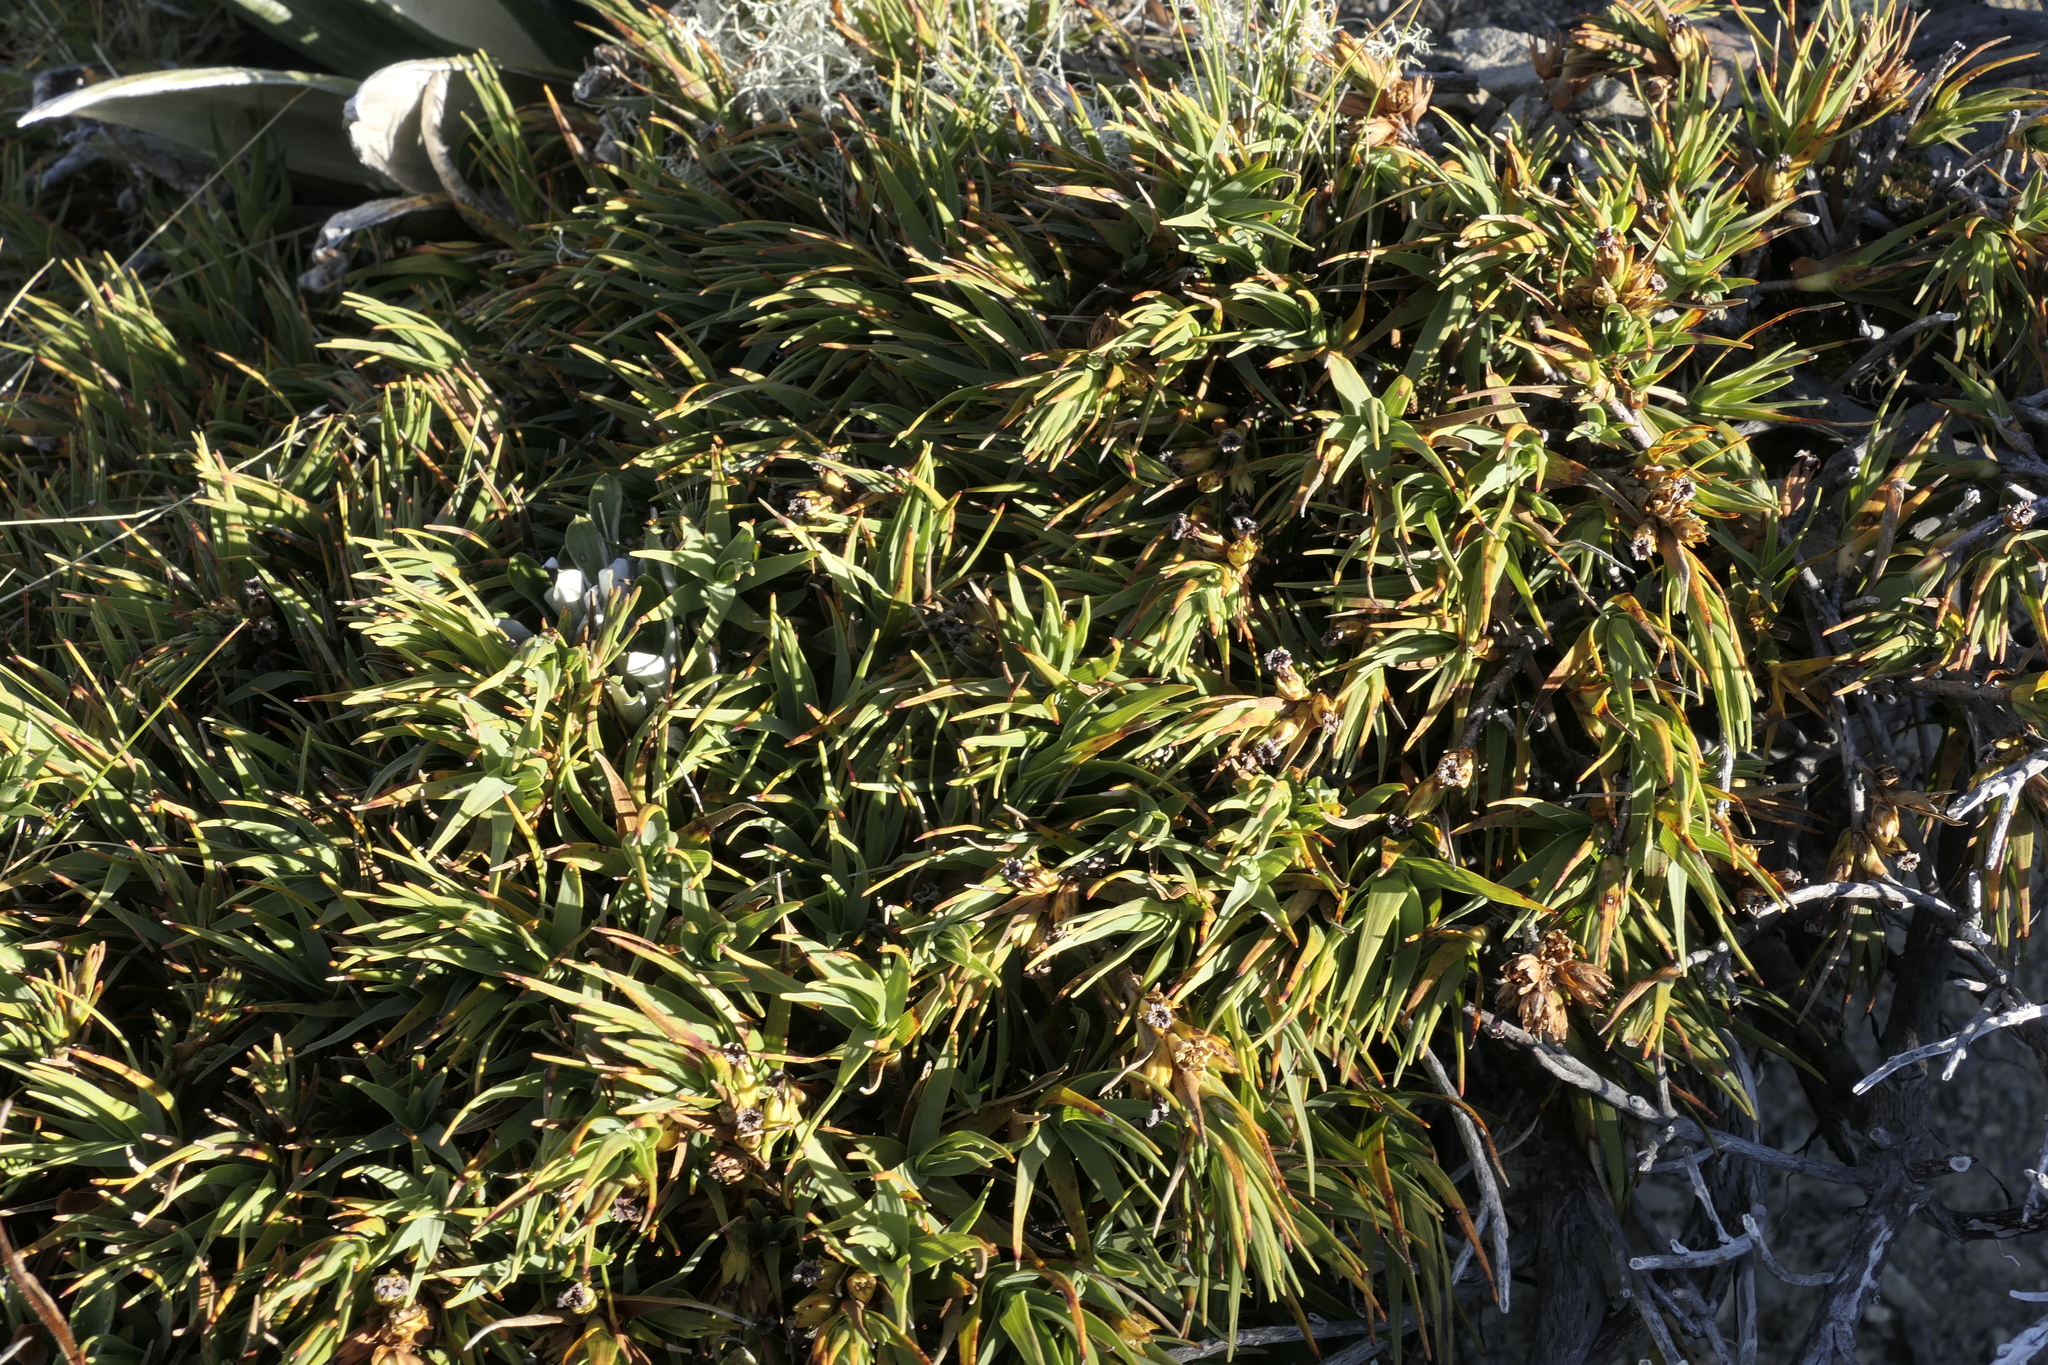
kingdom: Plantae
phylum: Tracheophyta
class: Magnoliopsida
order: Ericales
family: Ericaceae
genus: Dracophyllum
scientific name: Dracophyllum kirkii
